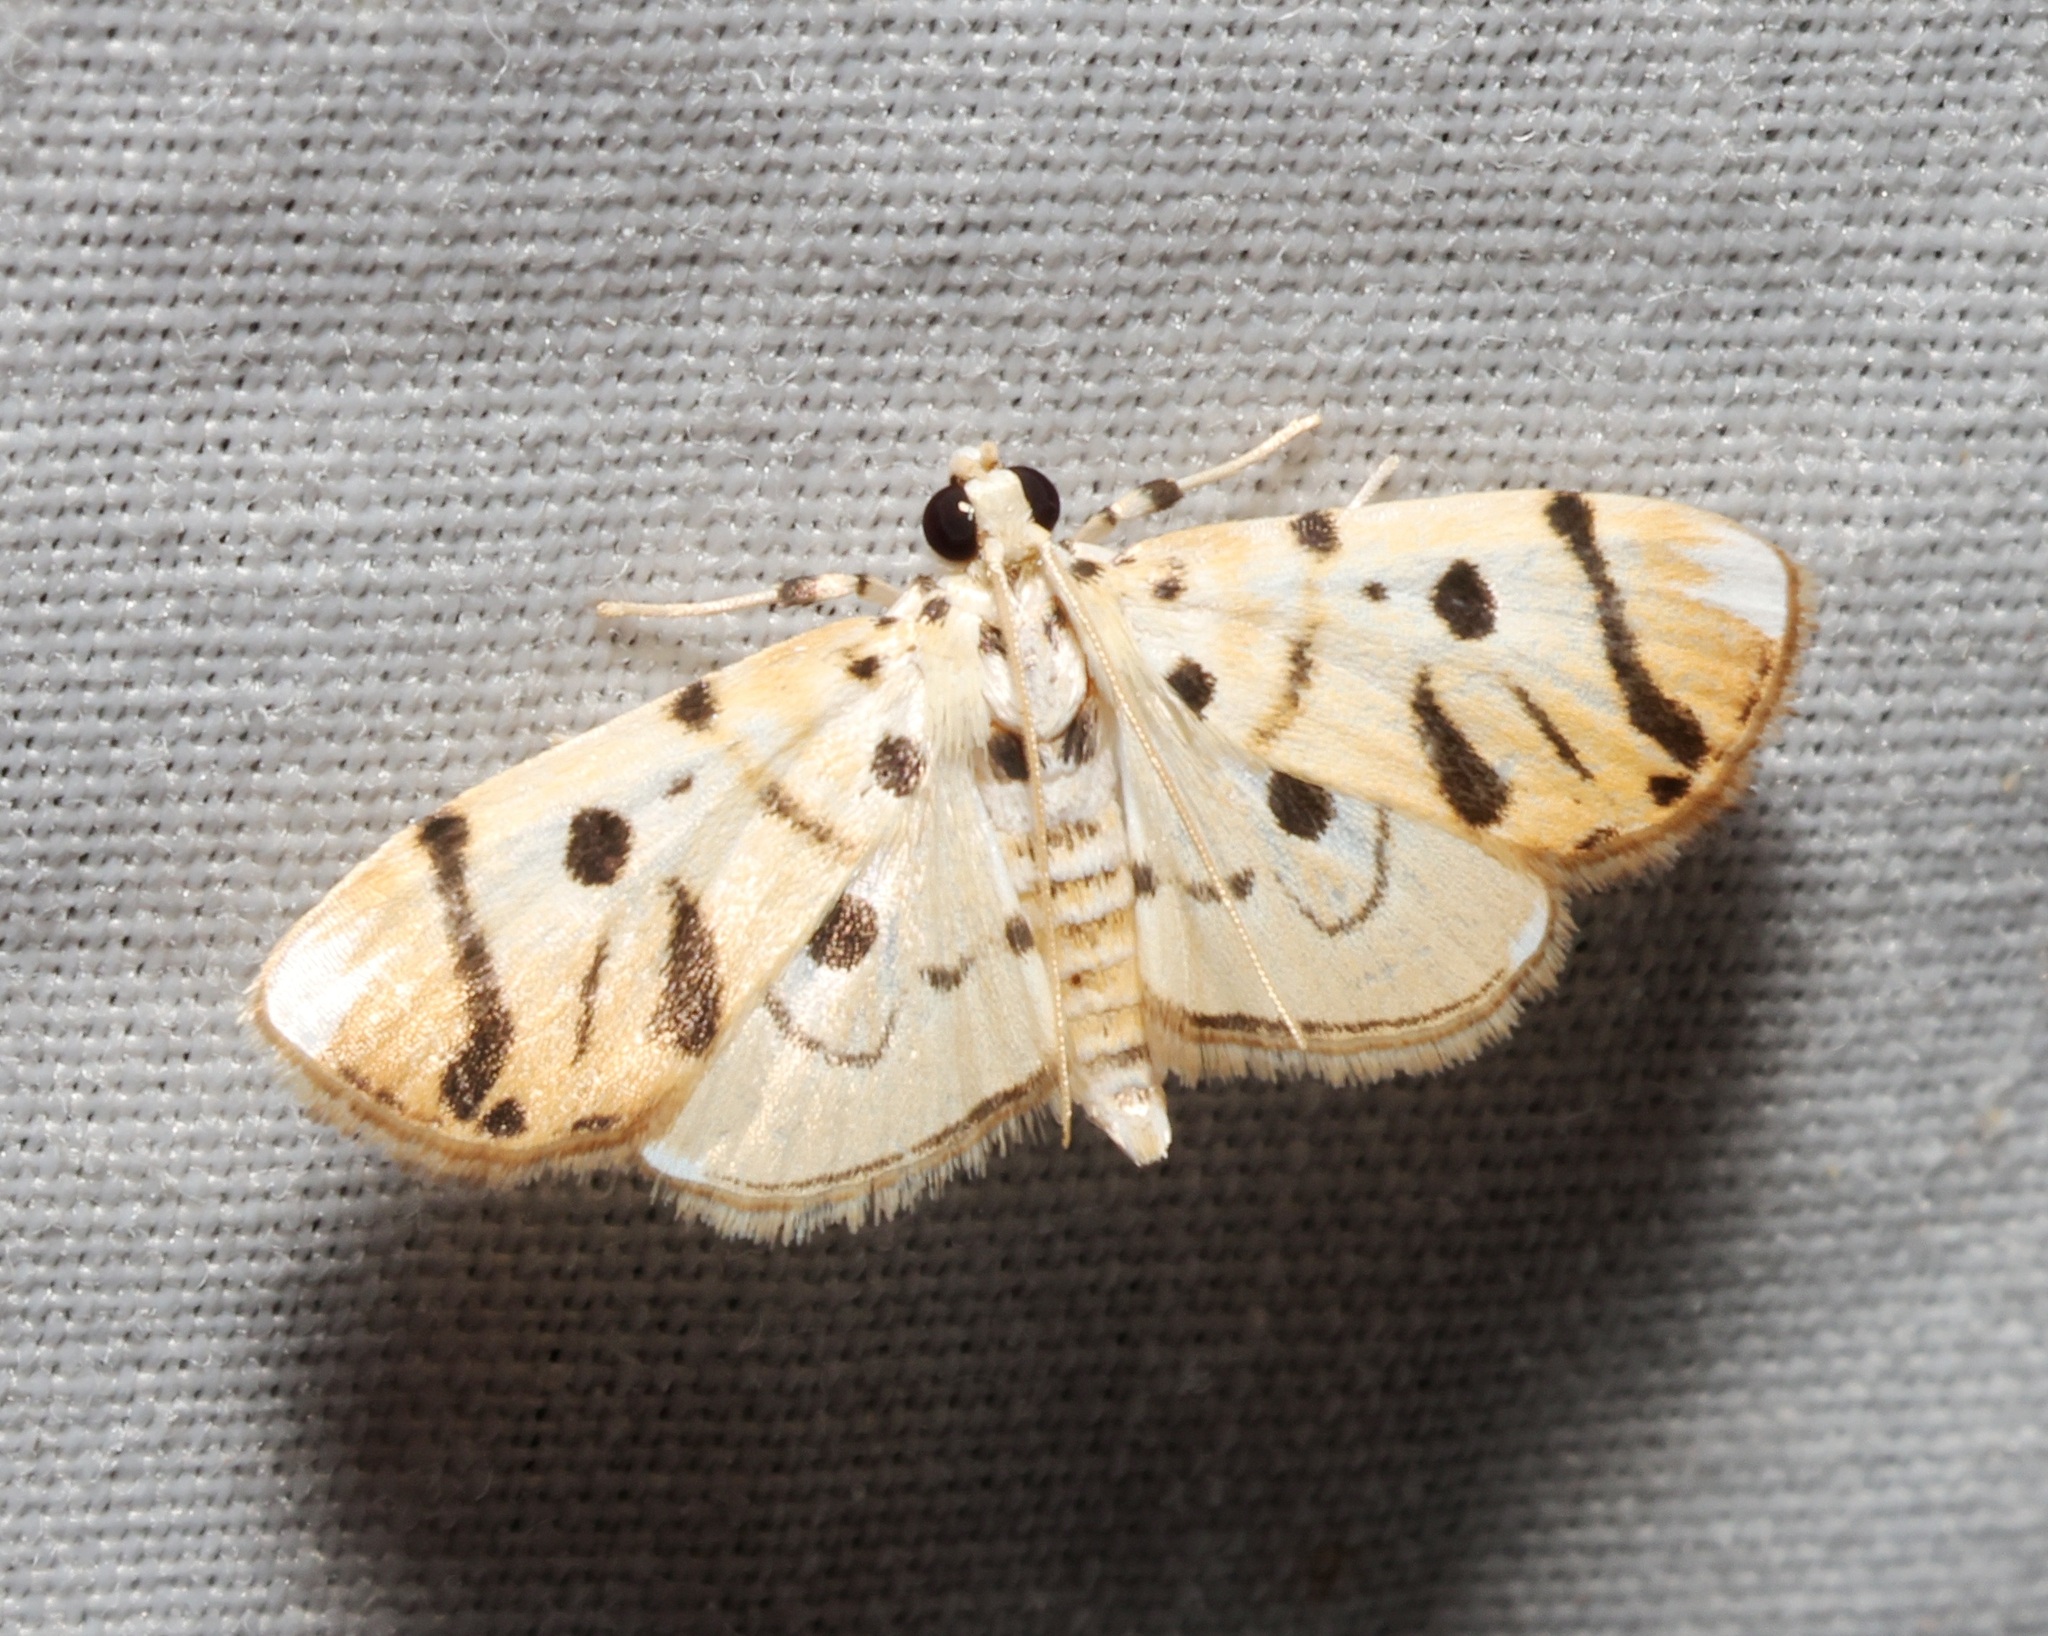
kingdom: Animalia
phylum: Arthropoda
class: Insecta
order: Lepidoptera
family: Crambidae
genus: Pycnarmon
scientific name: Pycnarmon radiata
